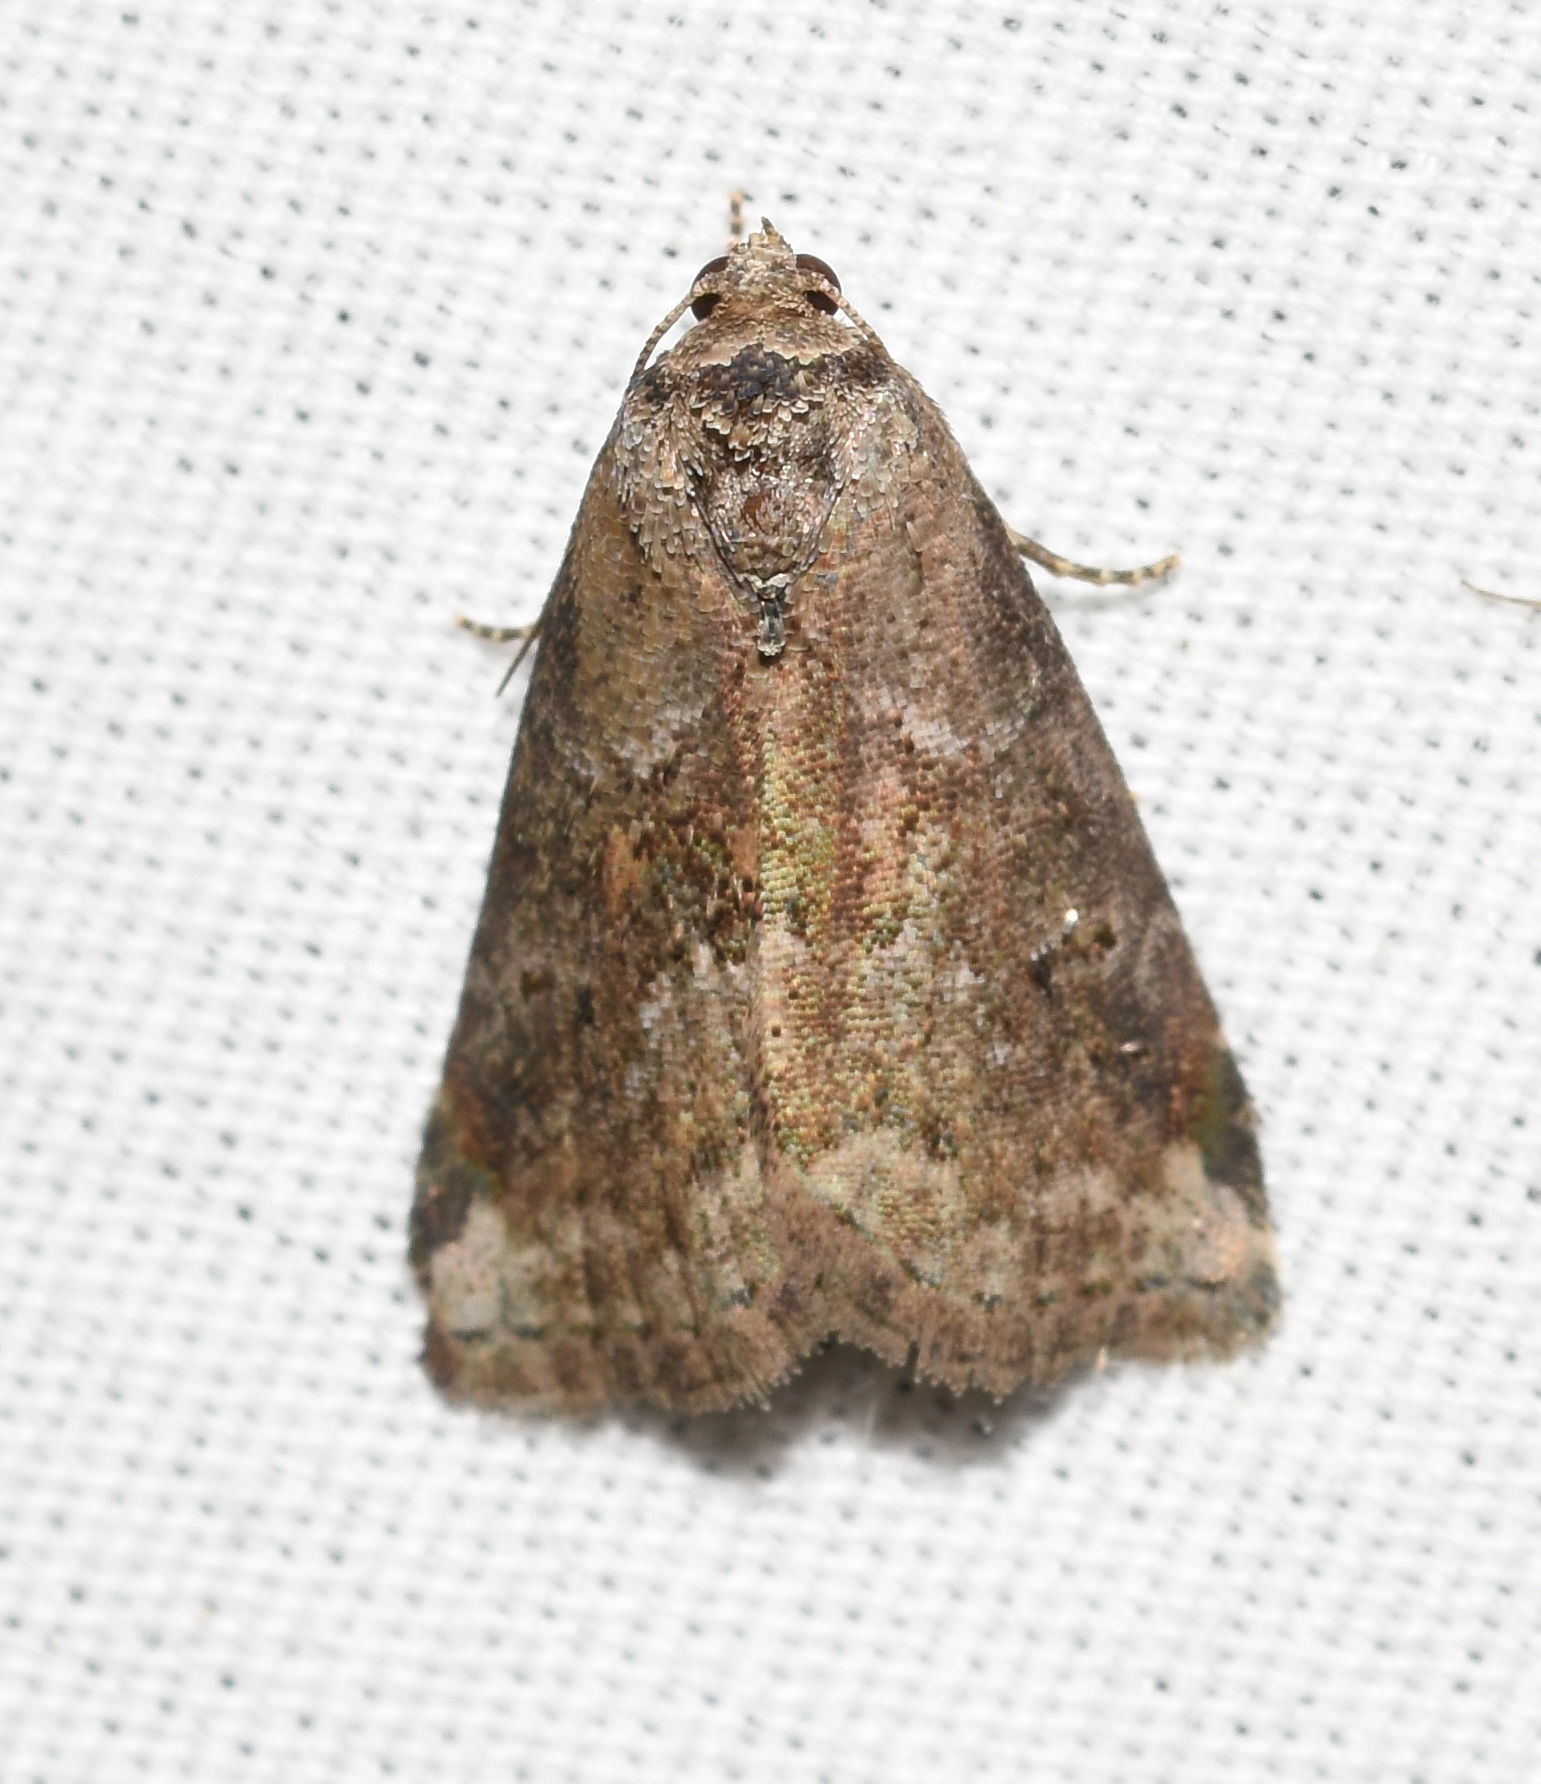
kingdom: Animalia
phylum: Arthropoda
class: Insecta
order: Lepidoptera
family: Erebidae
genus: Hyperstrotia
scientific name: Hyperstrotia nana
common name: White-lined graylet
